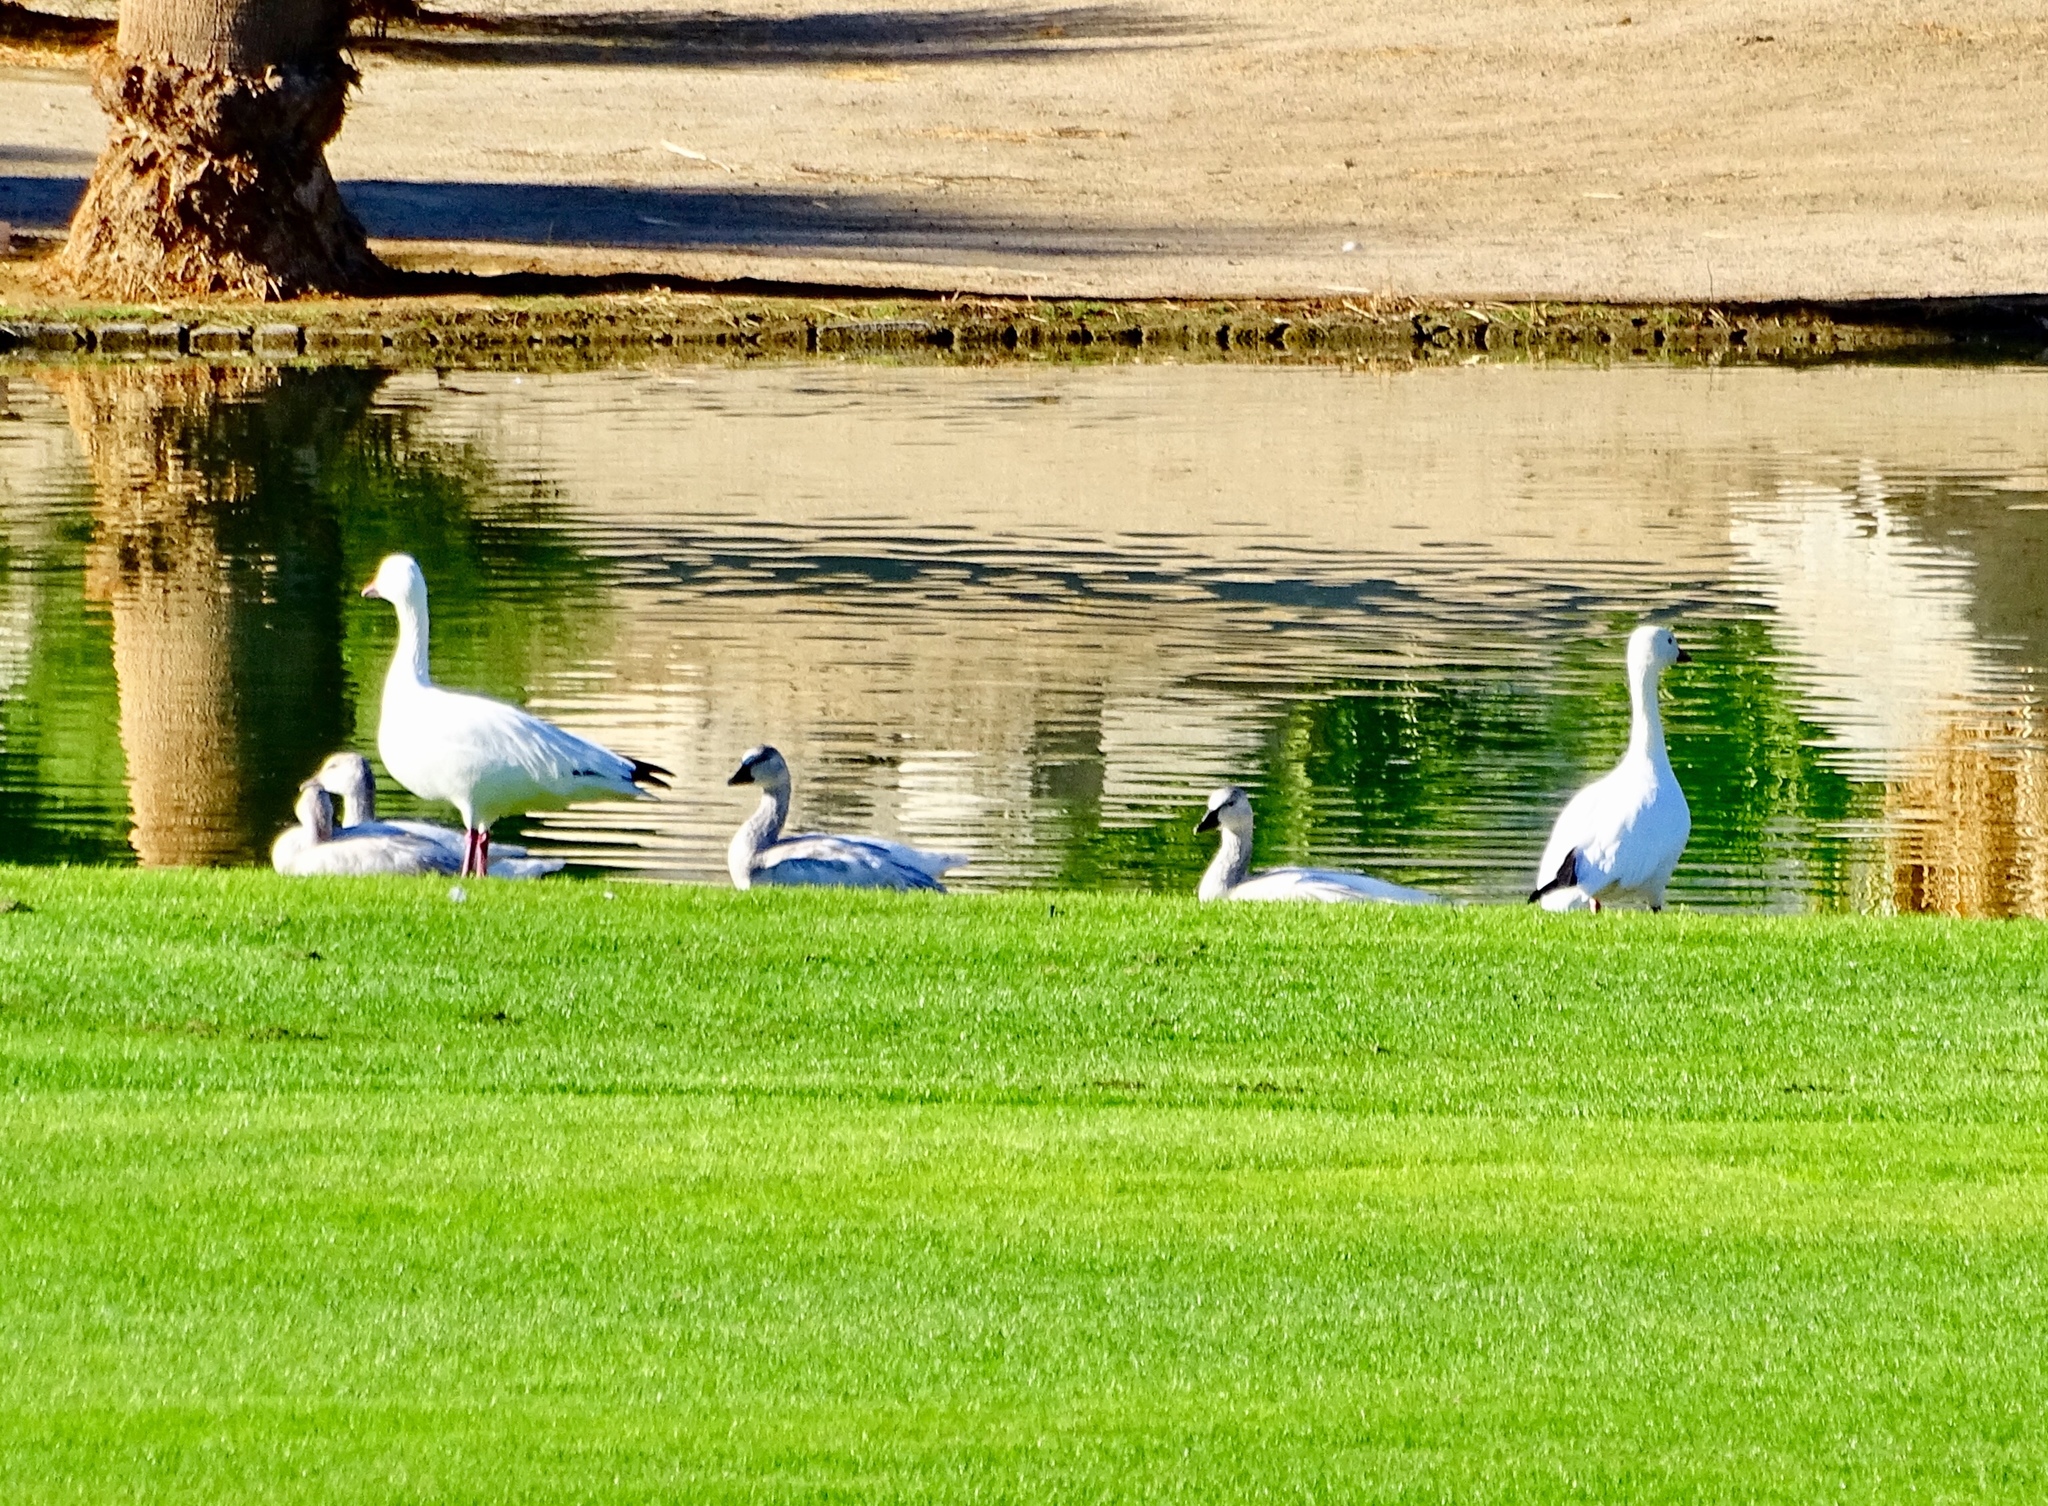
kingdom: Animalia
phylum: Chordata
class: Aves
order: Anseriformes
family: Anatidae
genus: Anser
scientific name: Anser caerulescens
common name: Snow goose
